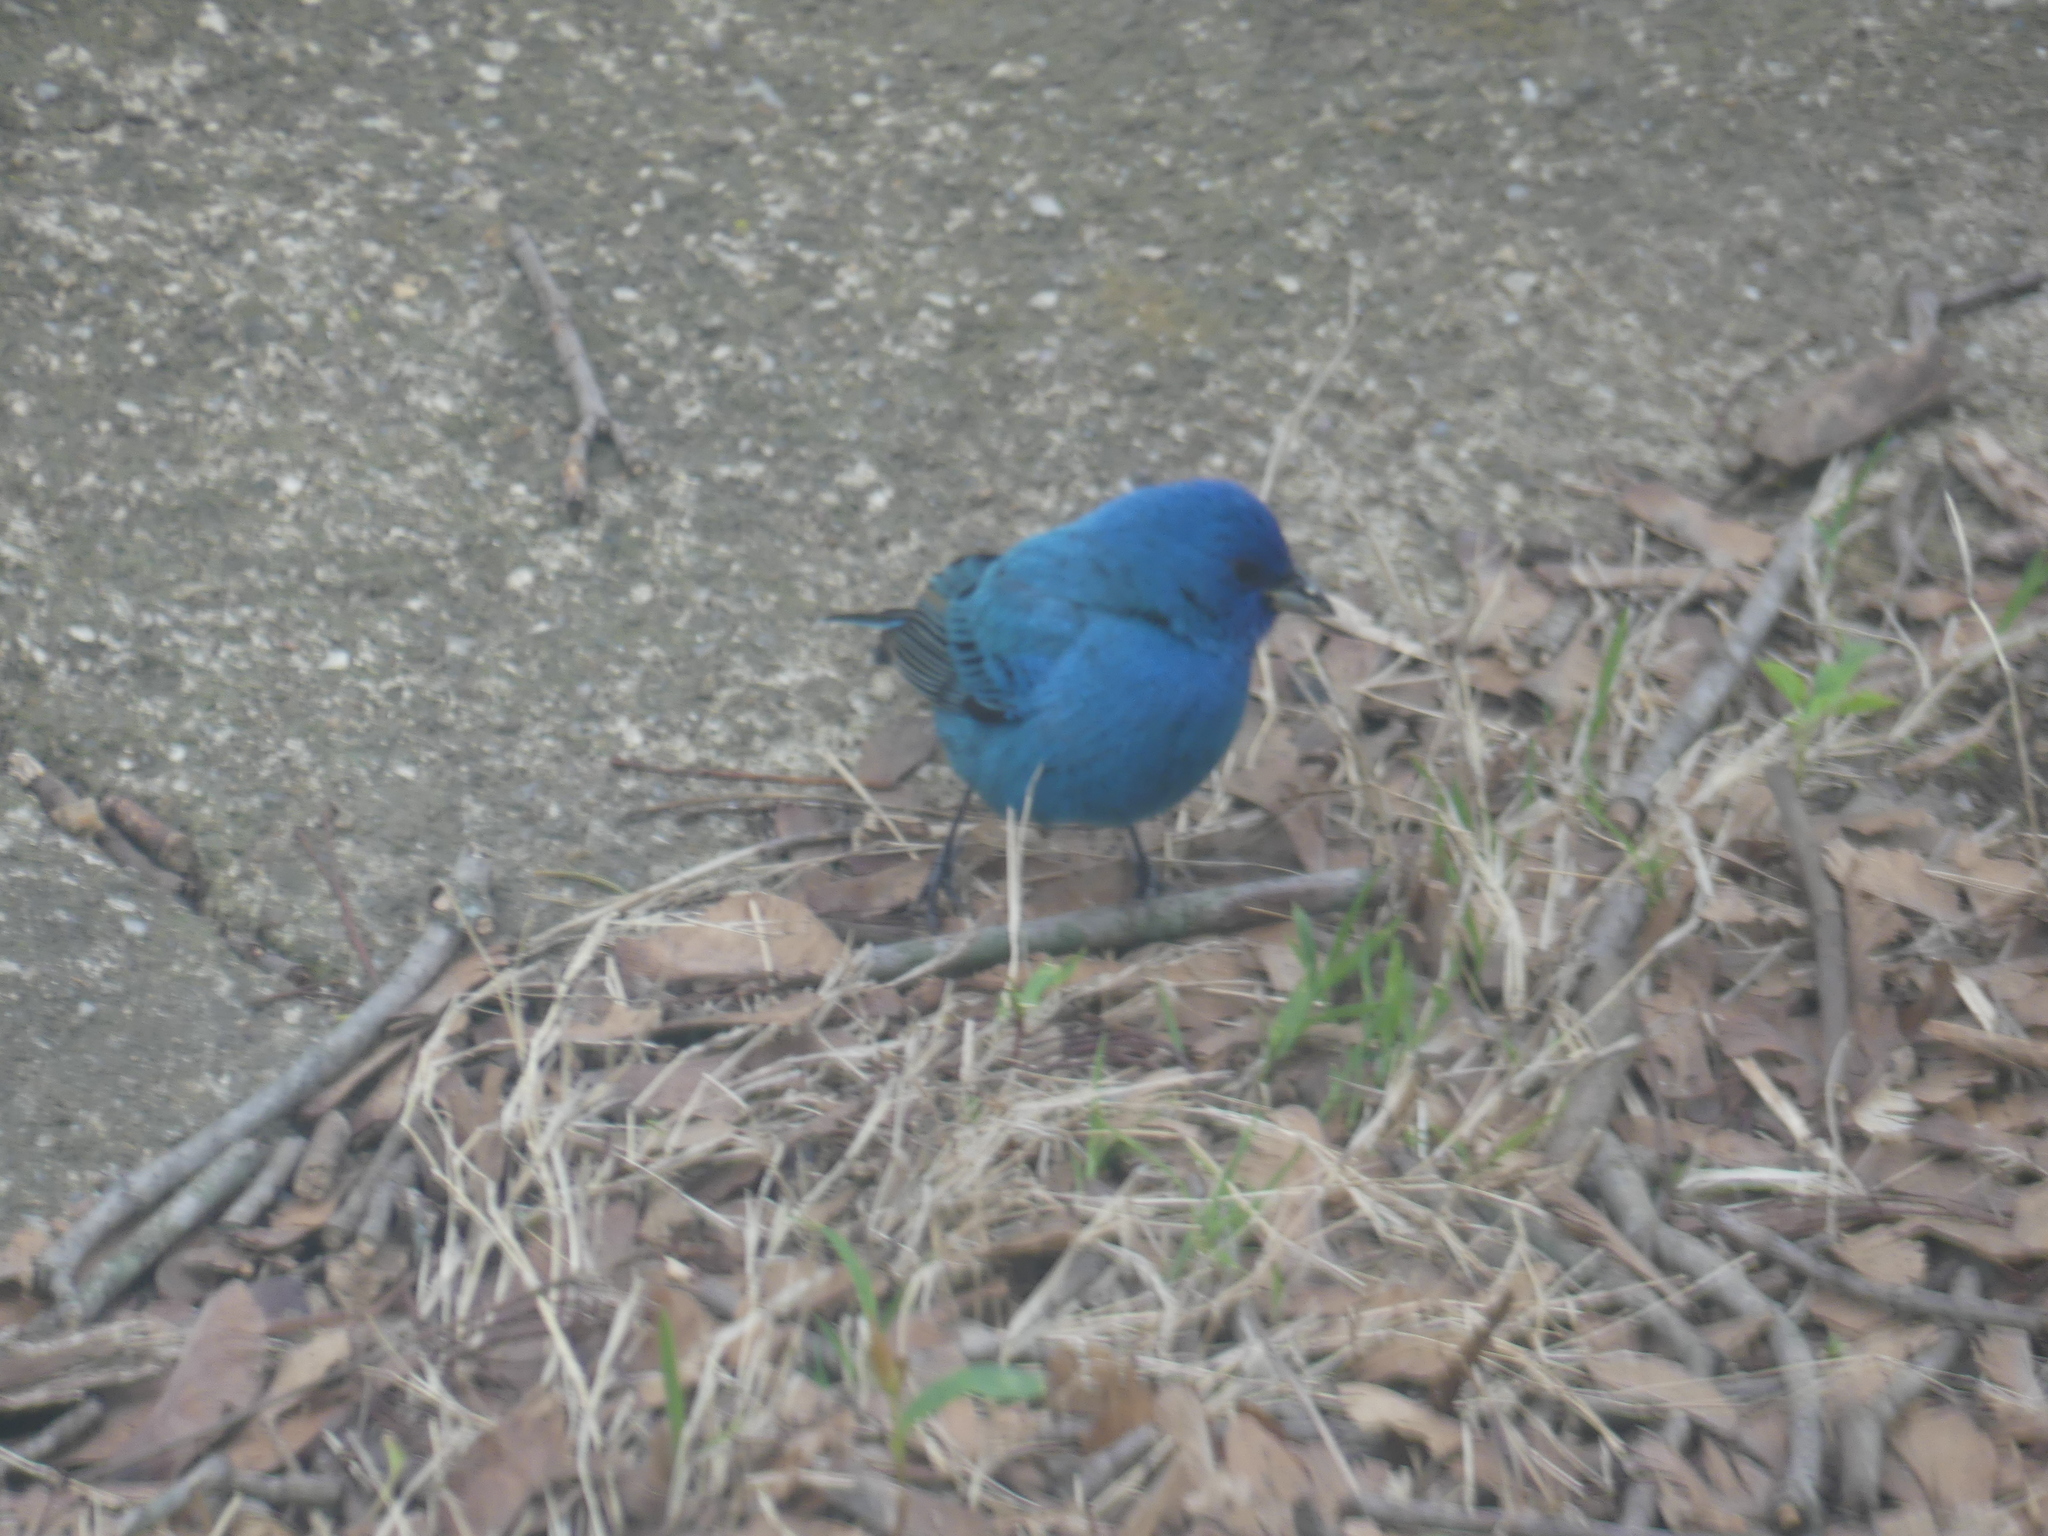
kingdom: Animalia
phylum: Chordata
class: Aves
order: Passeriformes
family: Cardinalidae
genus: Passerina
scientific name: Passerina cyanea
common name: Indigo bunting
